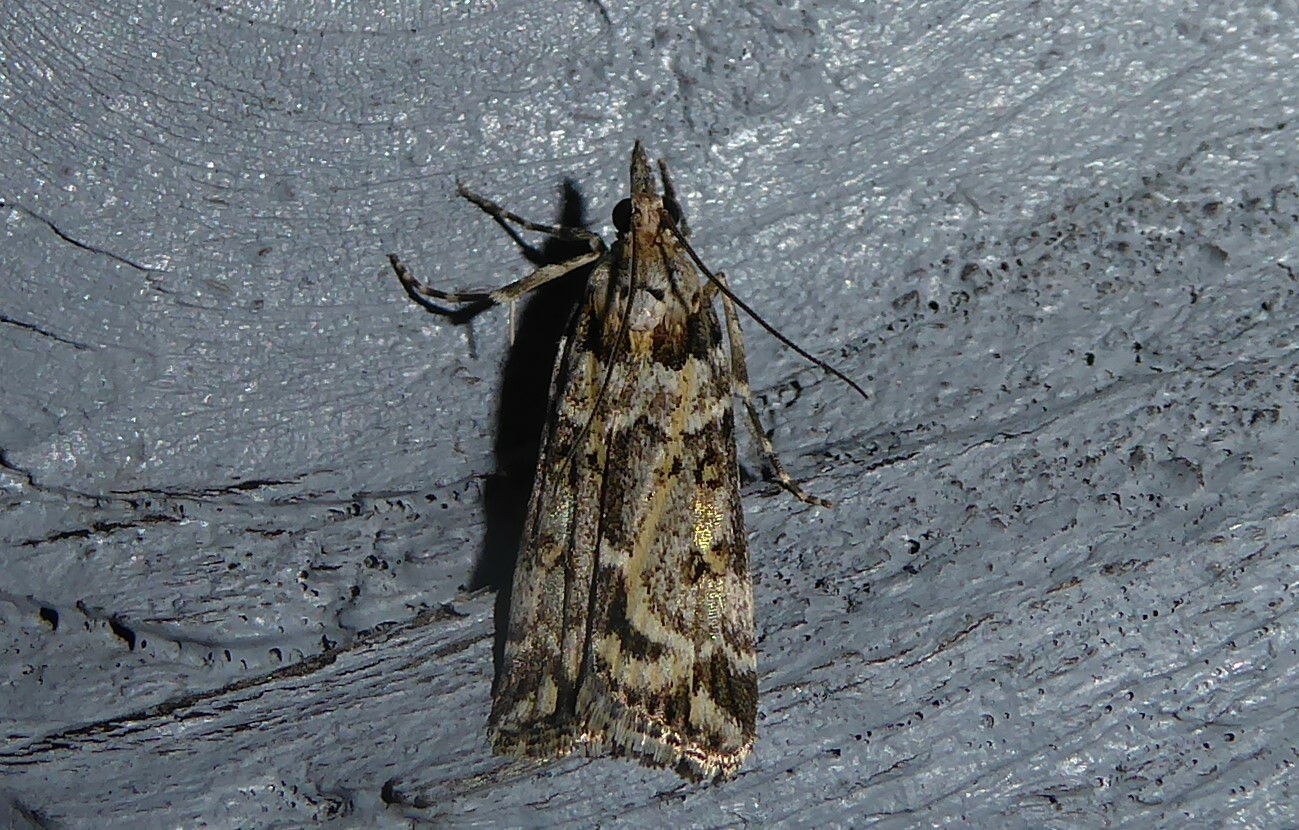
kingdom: Animalia
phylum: Arthropoda
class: Insecta
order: Lepidoptera
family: Crambidae
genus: Eudonia
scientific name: Eudonia diphtheralis
